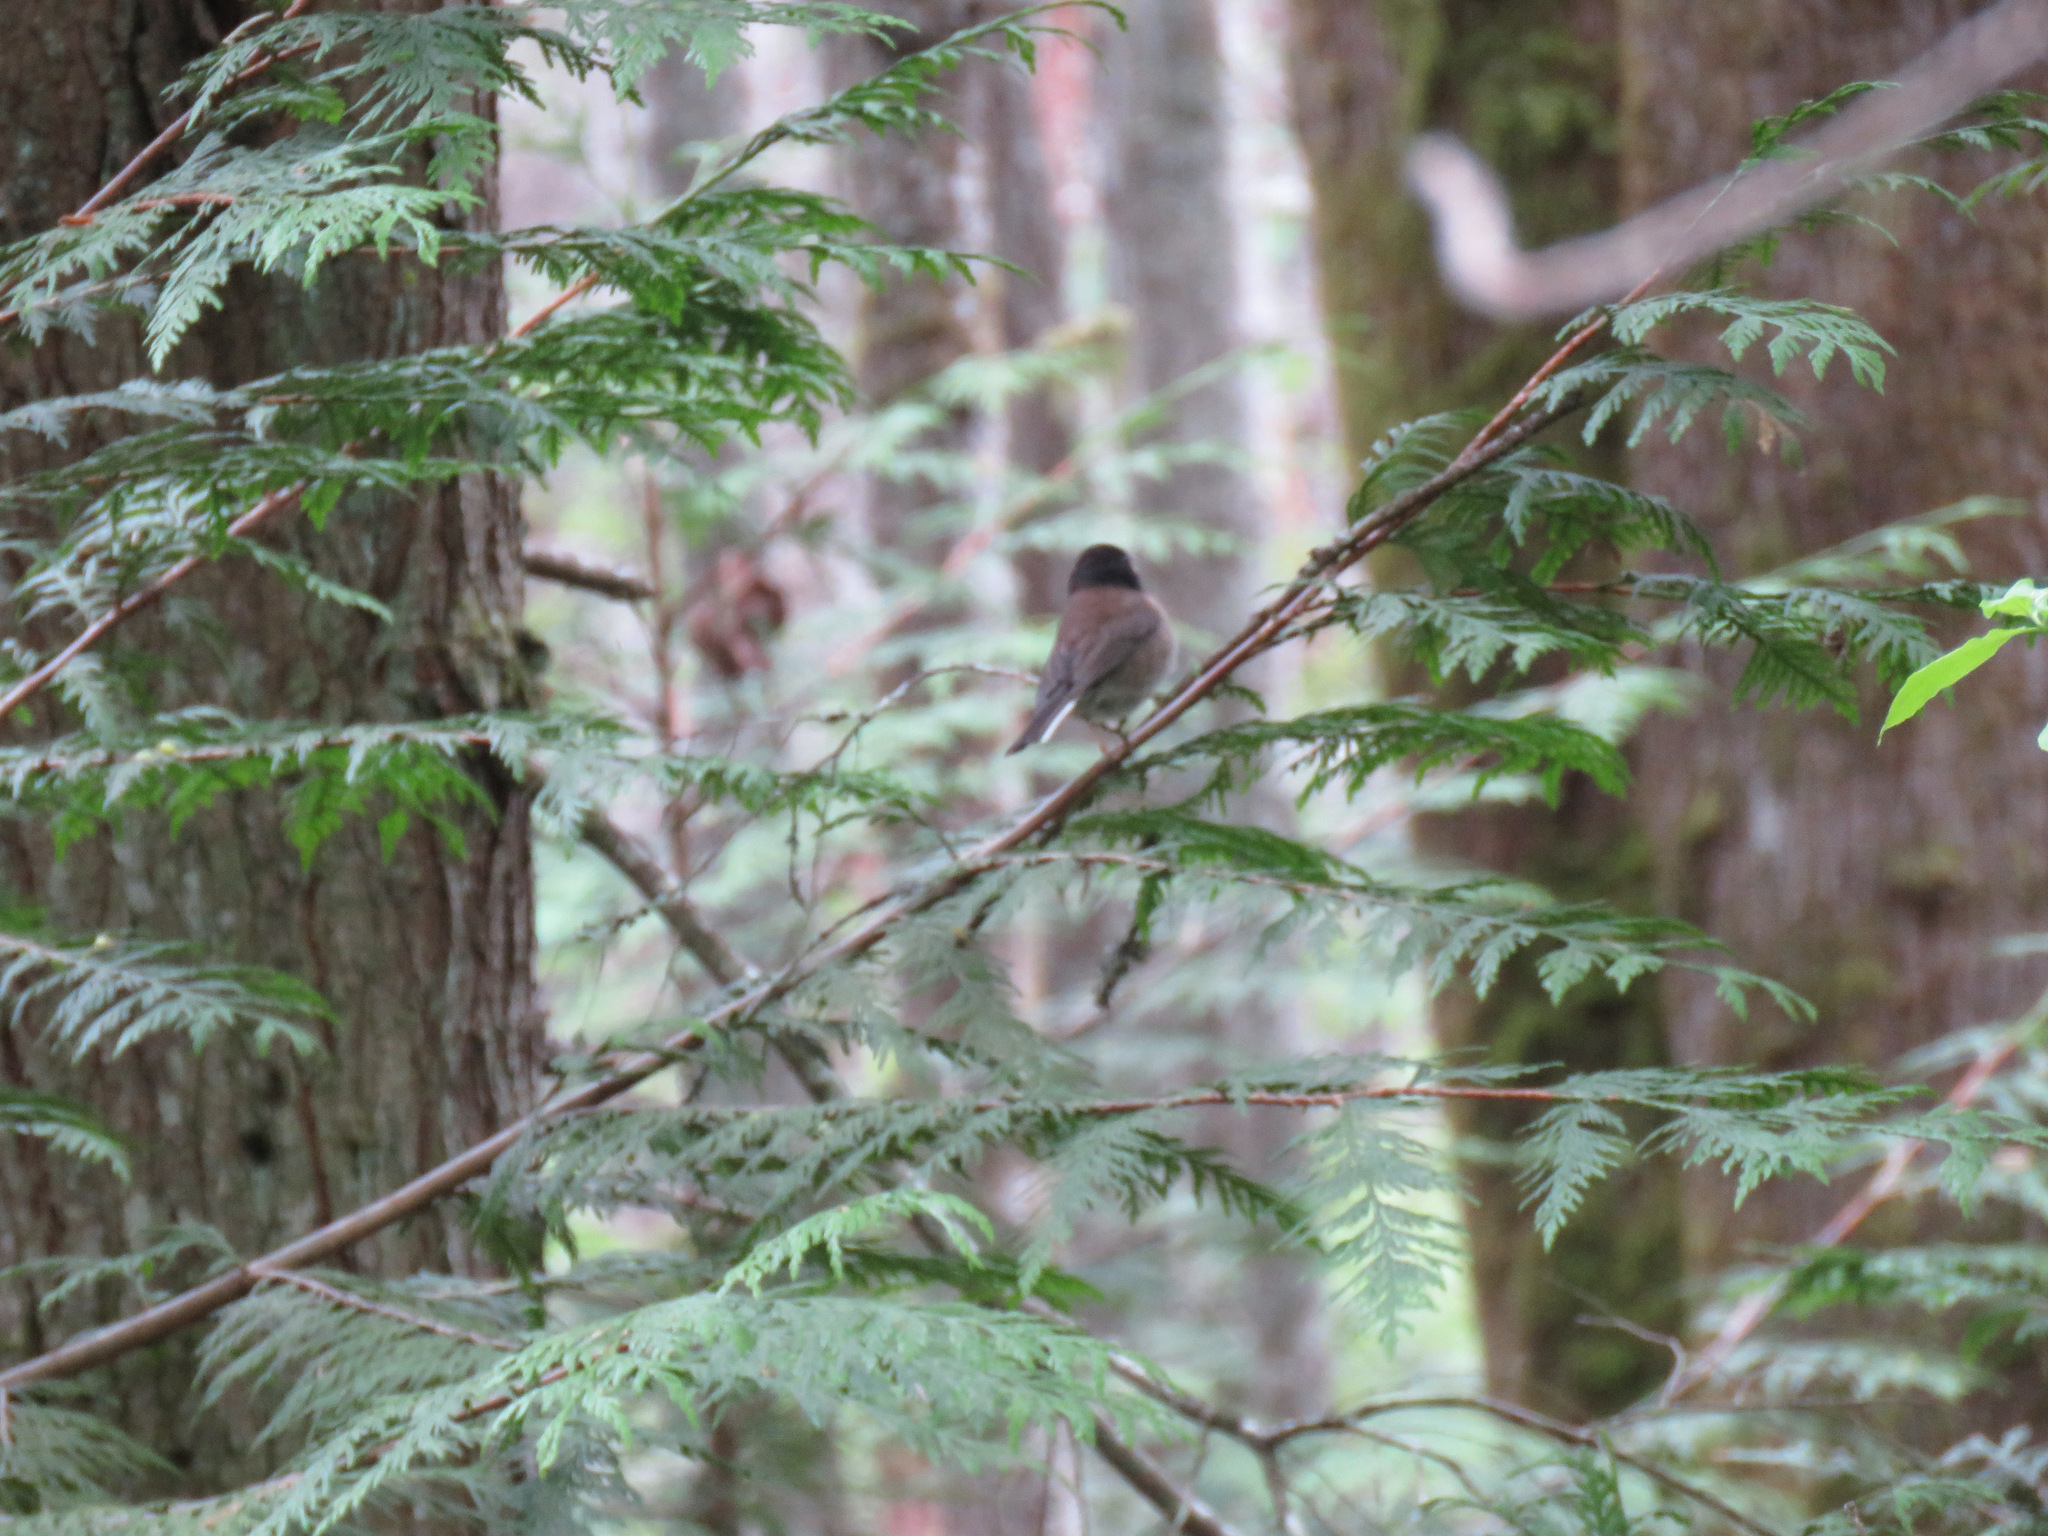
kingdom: Animalia
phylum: Chordata
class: Aves
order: Passeriformes
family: Passerellidae
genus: Junco
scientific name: Junco hyemalis
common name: Dark-eyed junco
